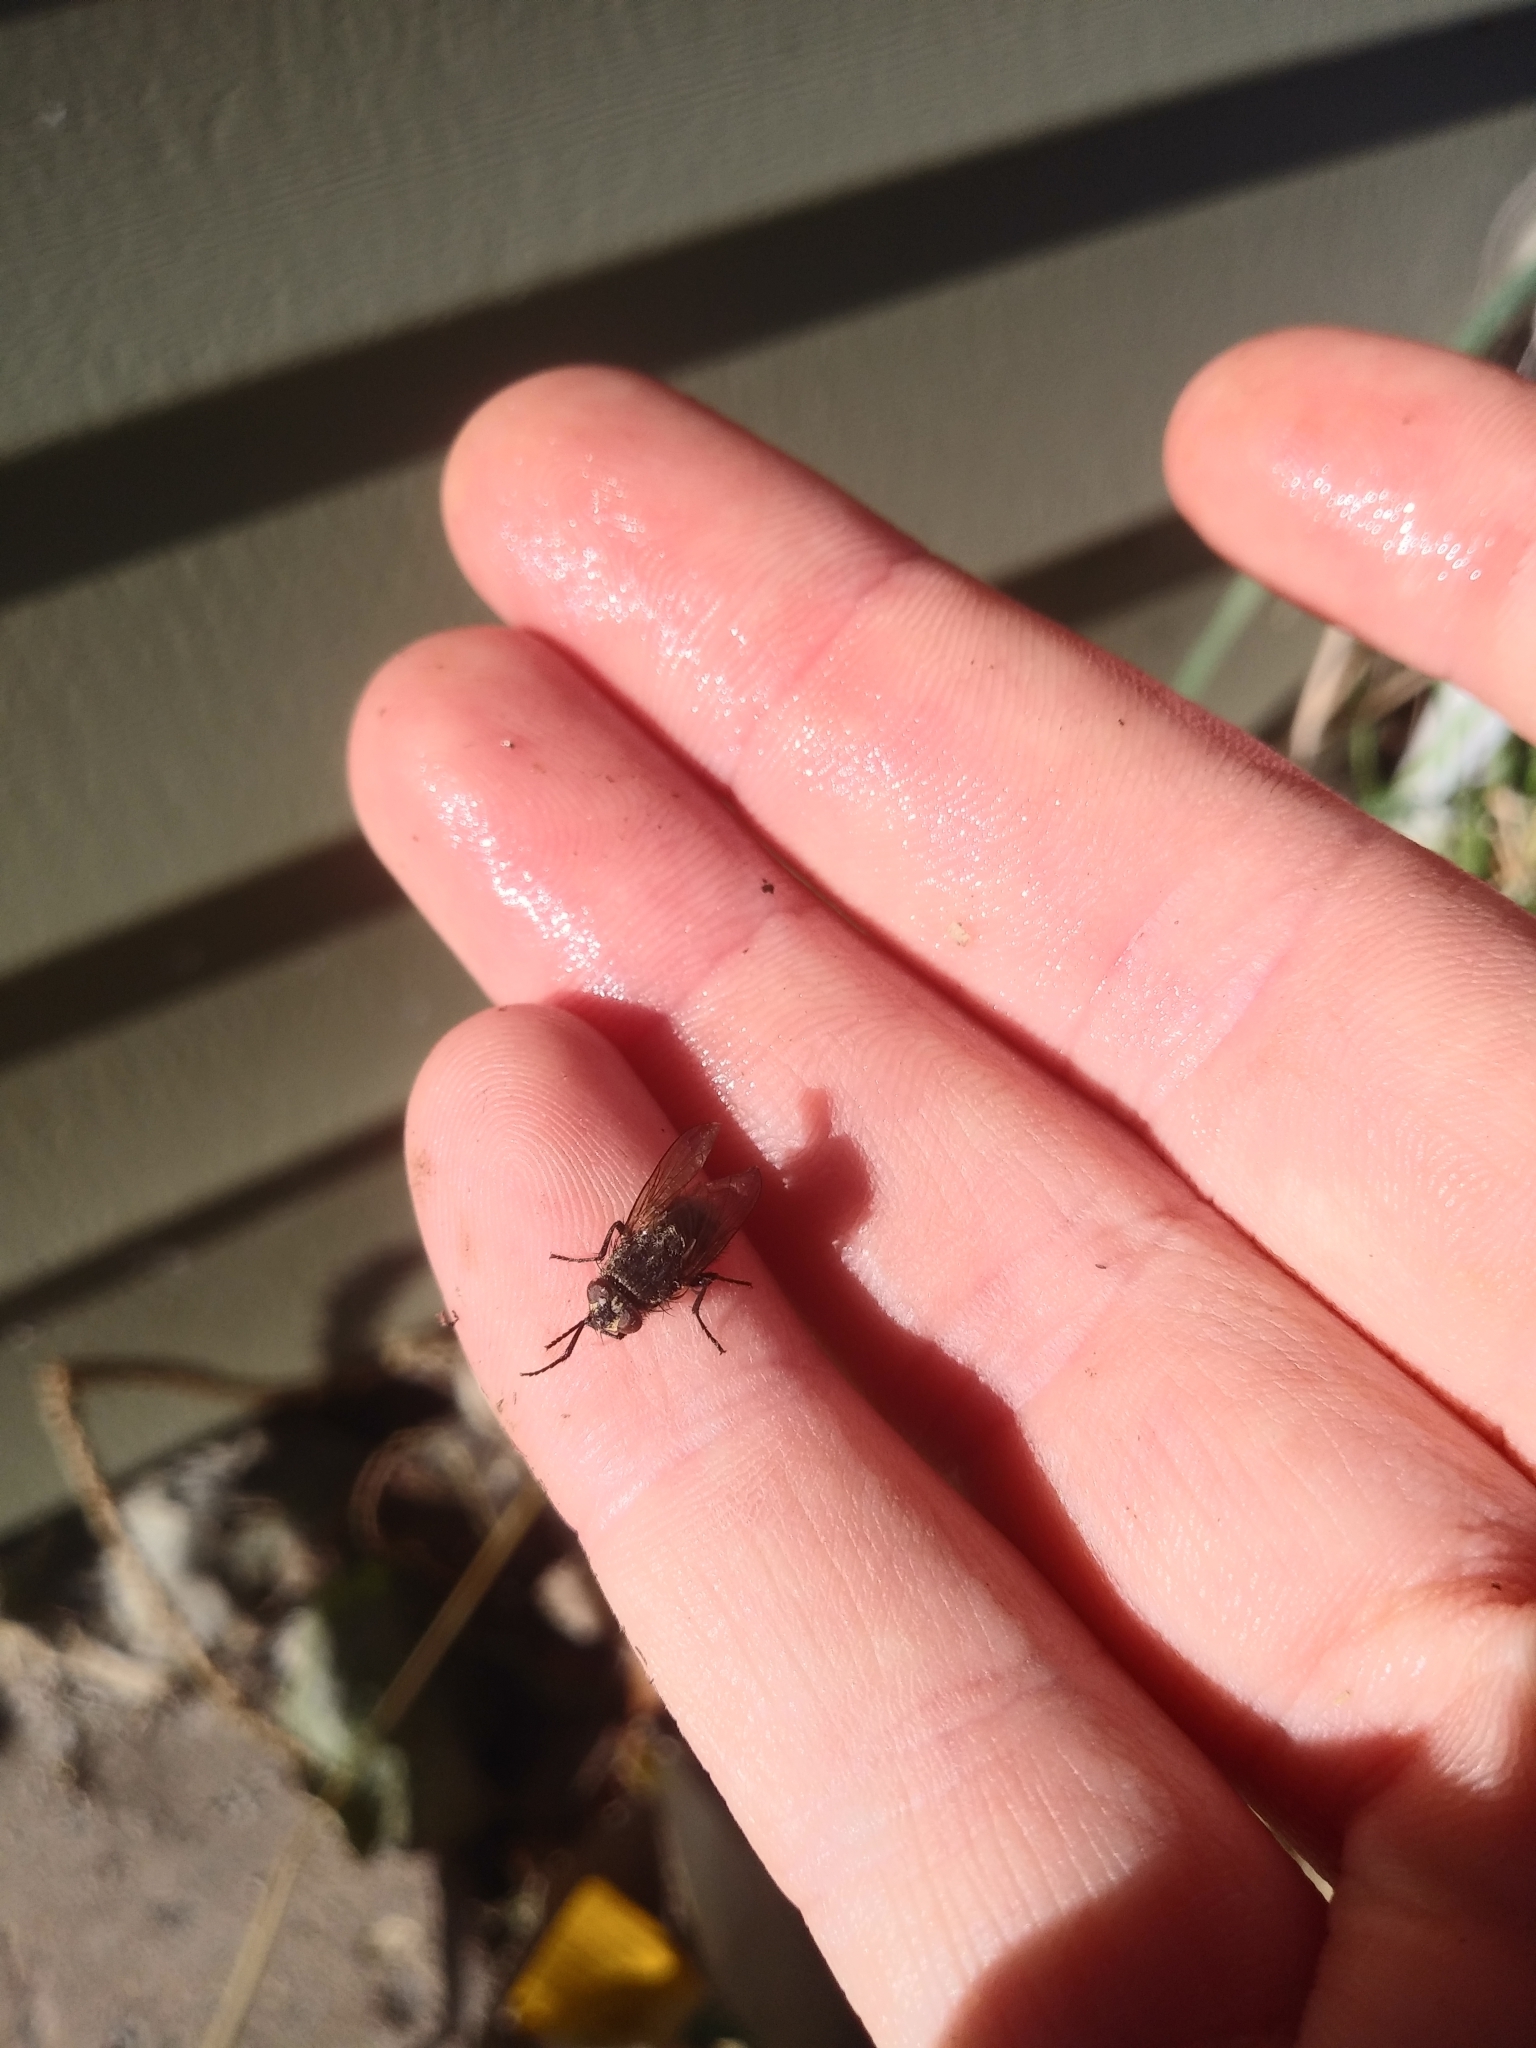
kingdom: Animalia
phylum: Arthropoda
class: Insecta
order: Diptera
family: Polleniidae
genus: Pollenia
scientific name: Pollenia
